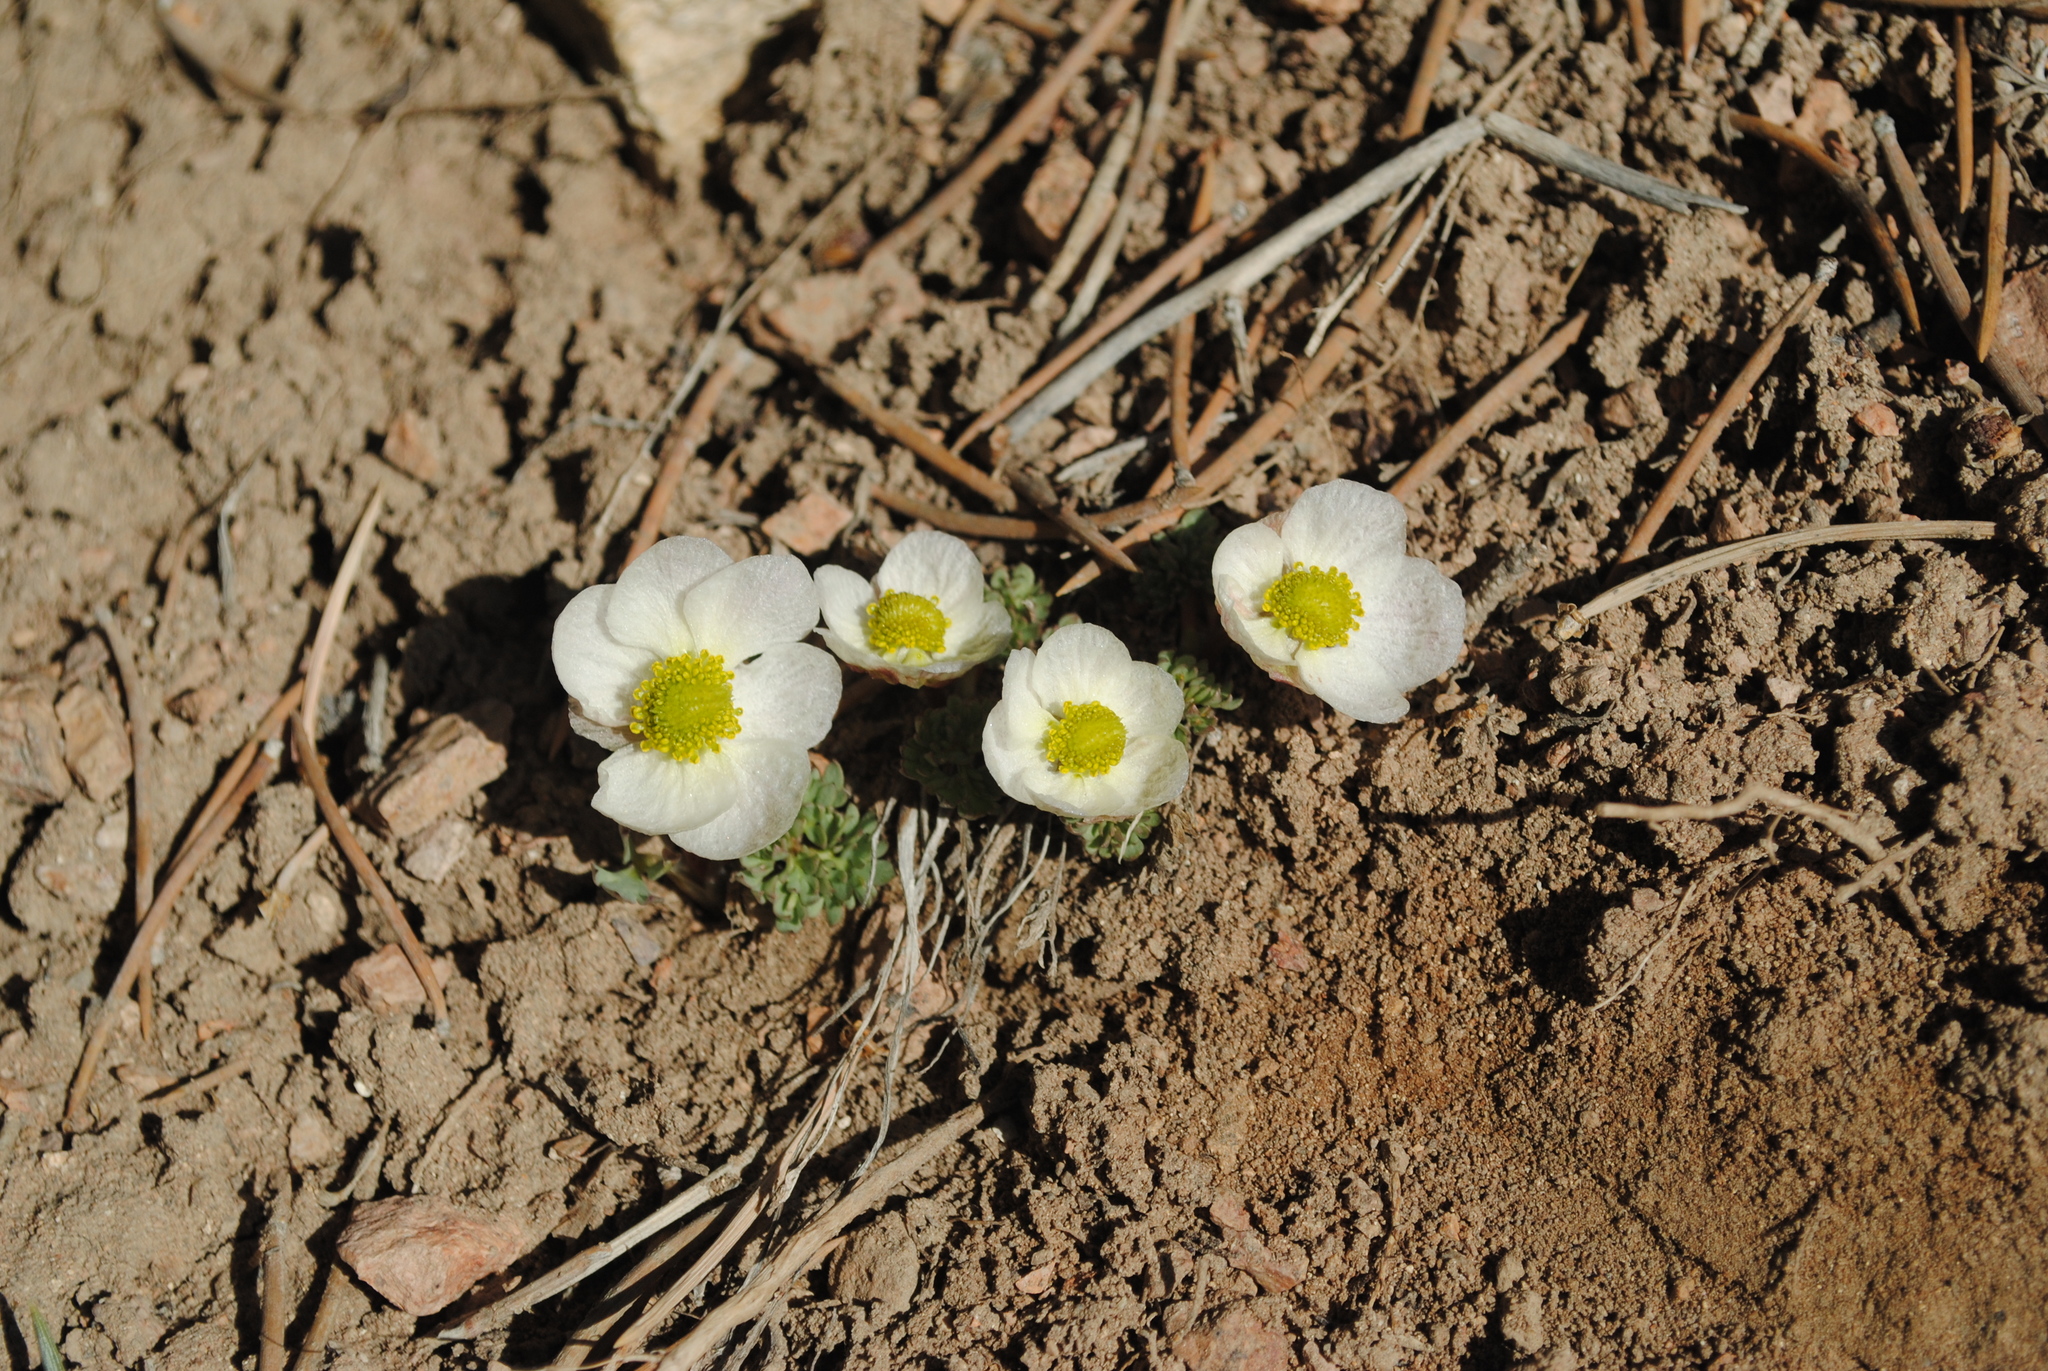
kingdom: Plantae
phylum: Tracheophyta
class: Magnoliopsida
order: Ranunculales
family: Ranunculaceae
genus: Beckwithia
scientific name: Beckwithia andersonii
